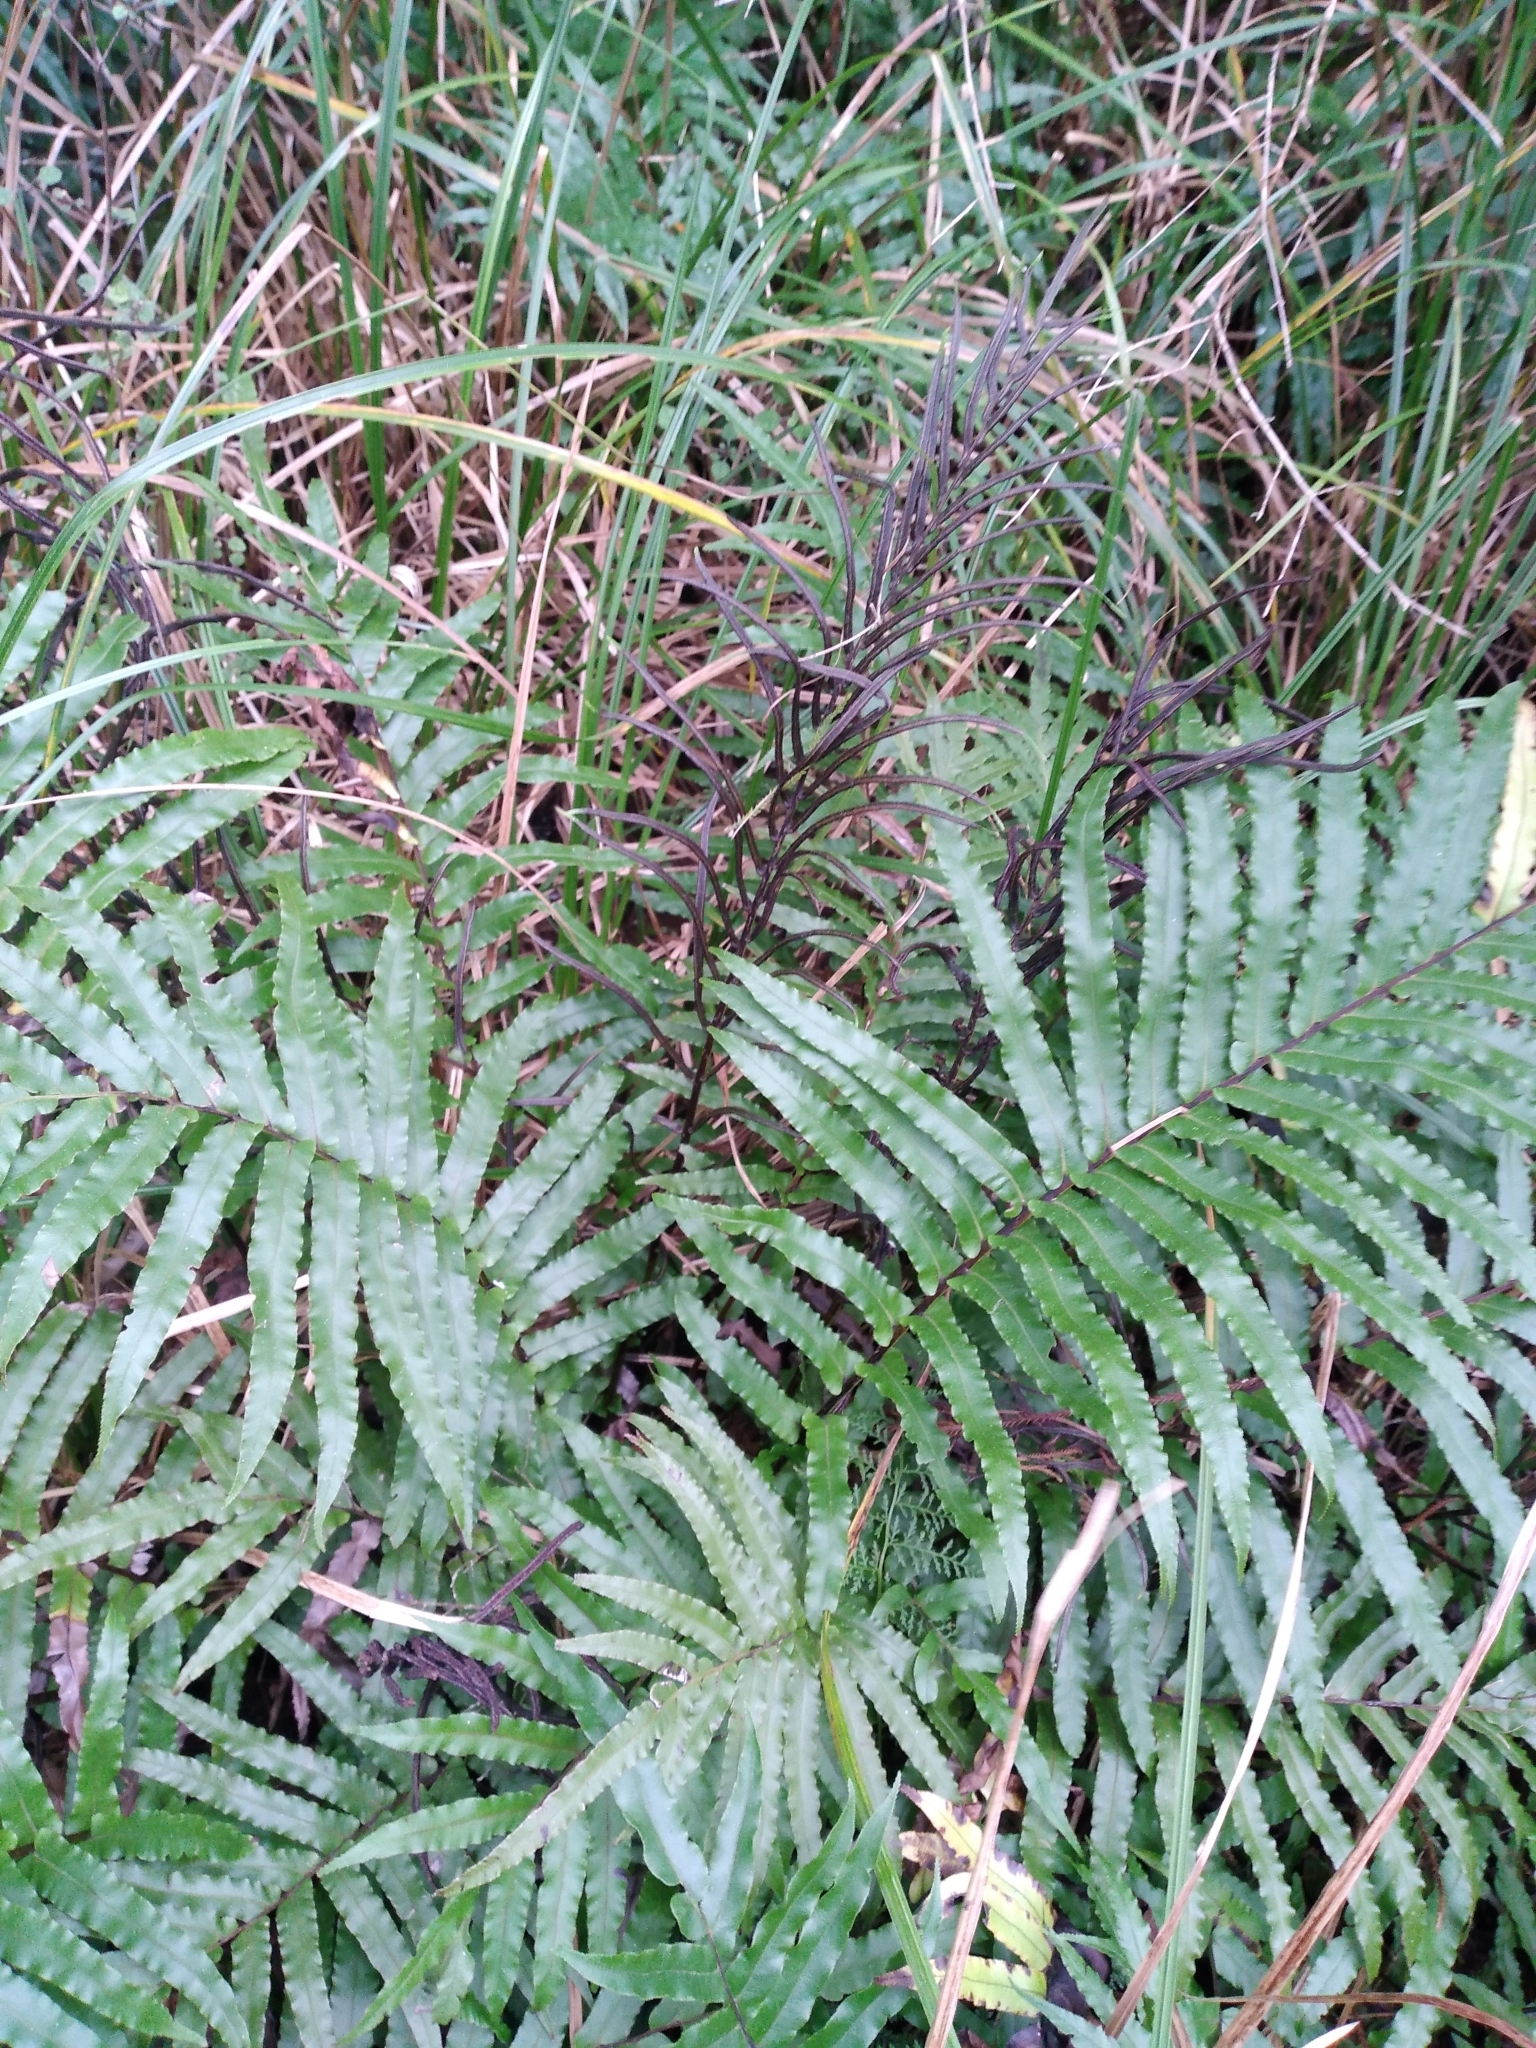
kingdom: Plantae
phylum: Tracheophyta
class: Polypodiopsida
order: Polypodiales
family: Blechnaceae
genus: Parablechnum
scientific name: Parablechnum minus
